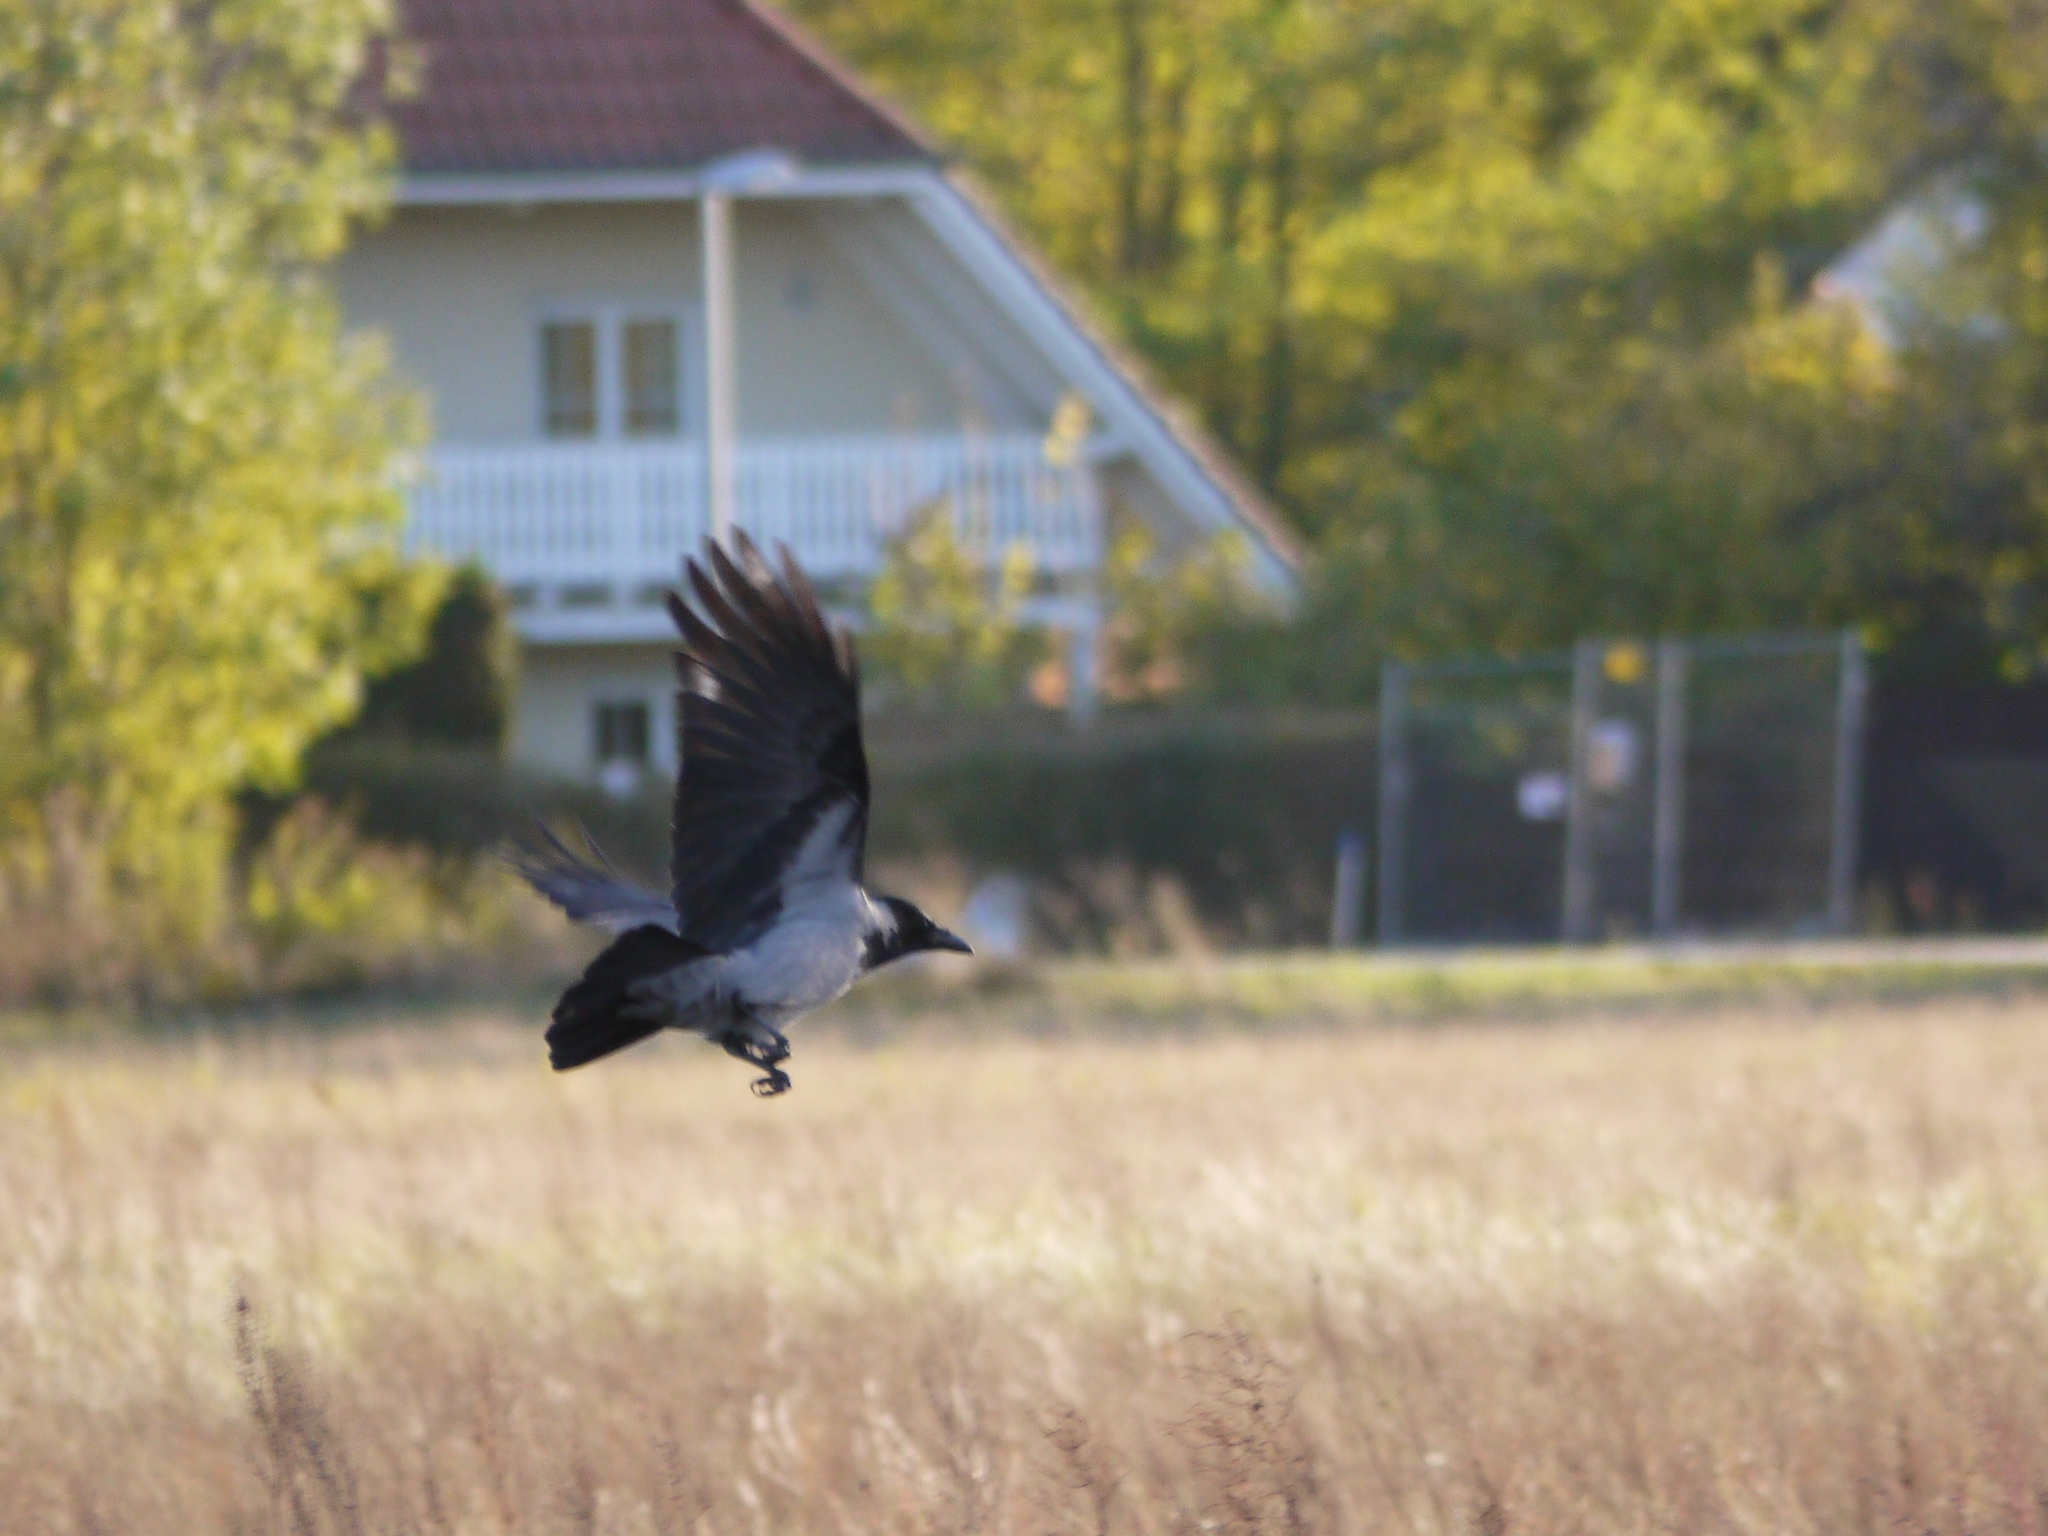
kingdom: Animalia
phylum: Chordata
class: Aves
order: Passeriformes
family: Corvidae
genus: Corvus
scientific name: Corvus cornix
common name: Hooded crow
